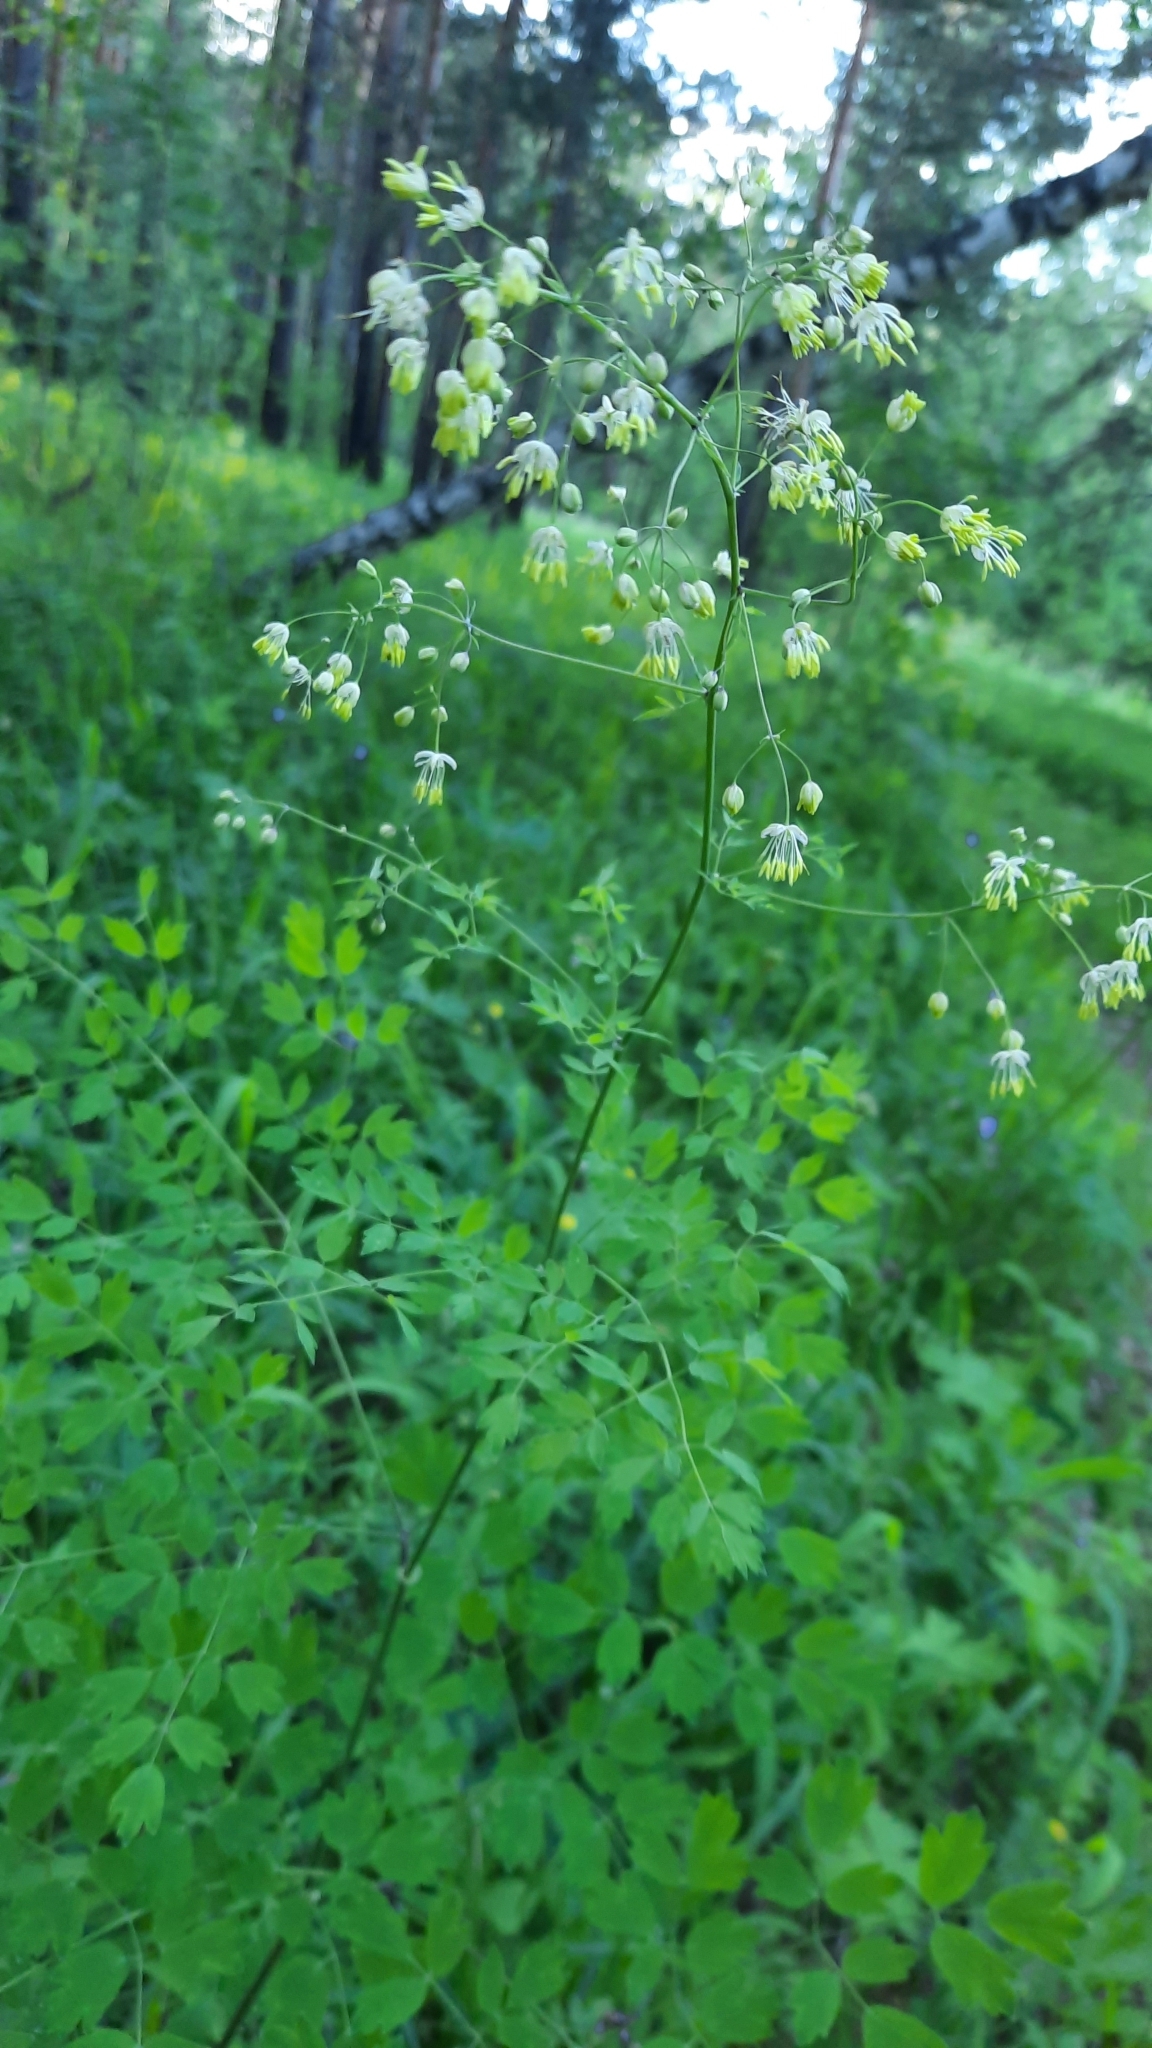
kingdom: Plantae
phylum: Tracheophyta
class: Magnoliopsida
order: Ranunculales
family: Ranunculaceae
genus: Thalictrum
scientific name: Thalictrum minus
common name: Lesser meadow-rue
